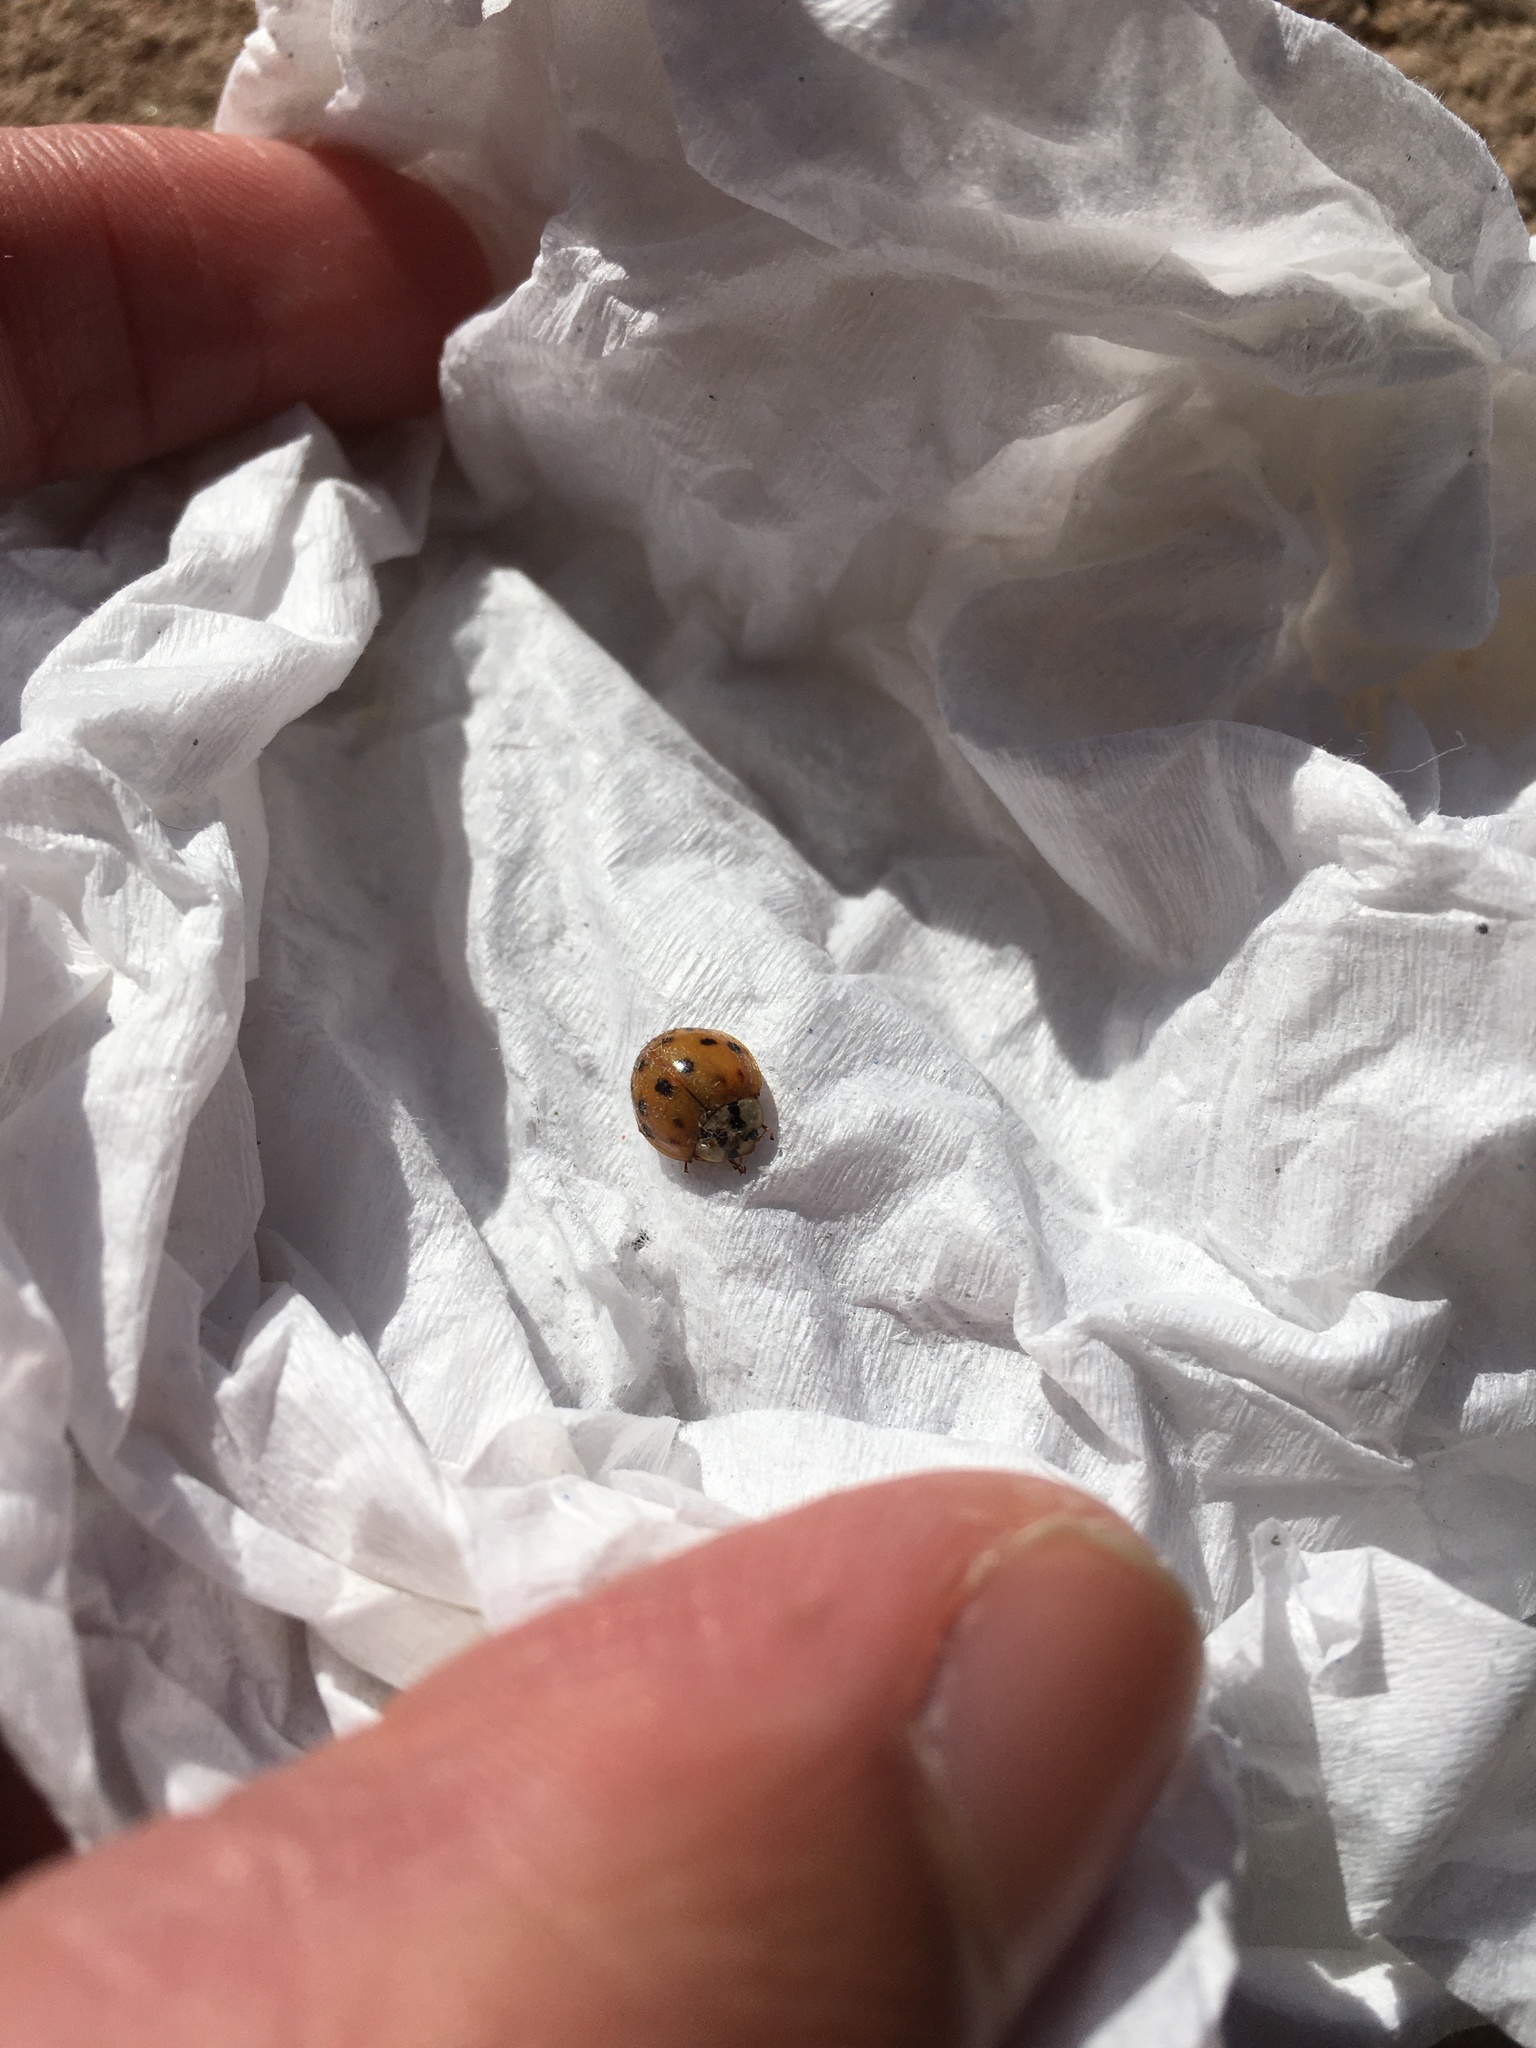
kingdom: Animalia
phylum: Arthropoda
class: Insecta
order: Coleoptera
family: Coccinellidae
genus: Harmonia
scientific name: Harmonia axyridis
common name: Harlequin ladybird
